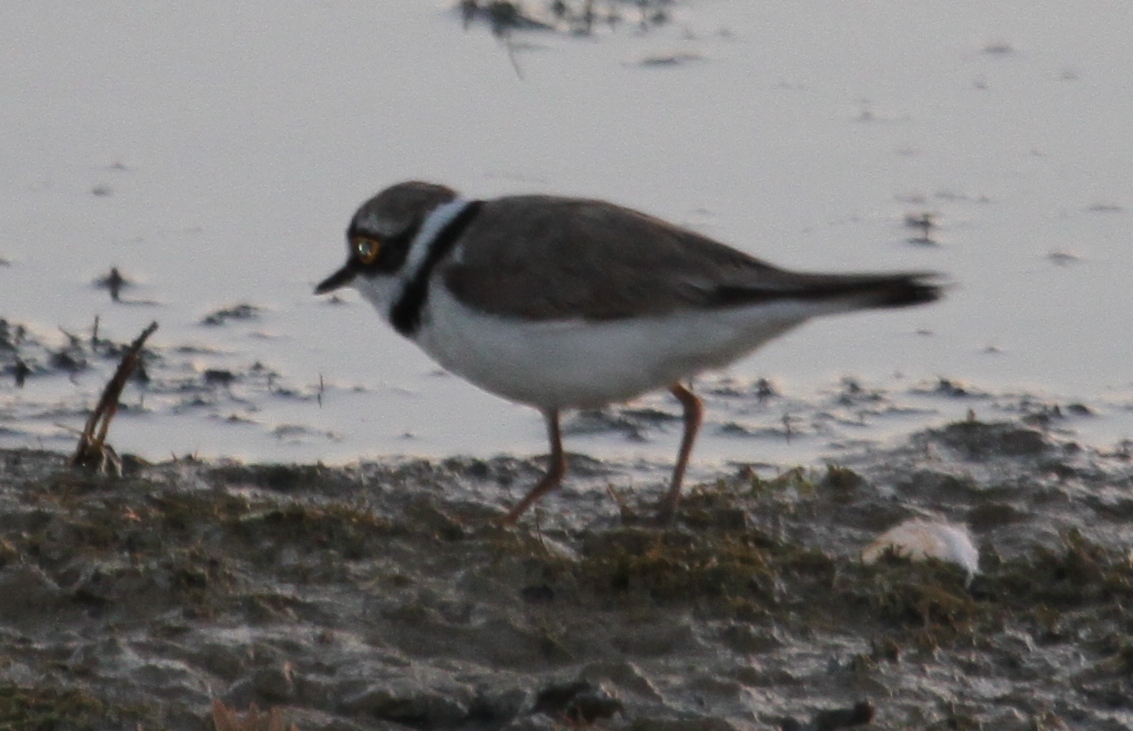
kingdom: Animalia
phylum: Chordata
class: Aves
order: Charadriiformes
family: Charadriidae
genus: Charadrius
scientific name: Charadrius dubius
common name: Little ringed plover
